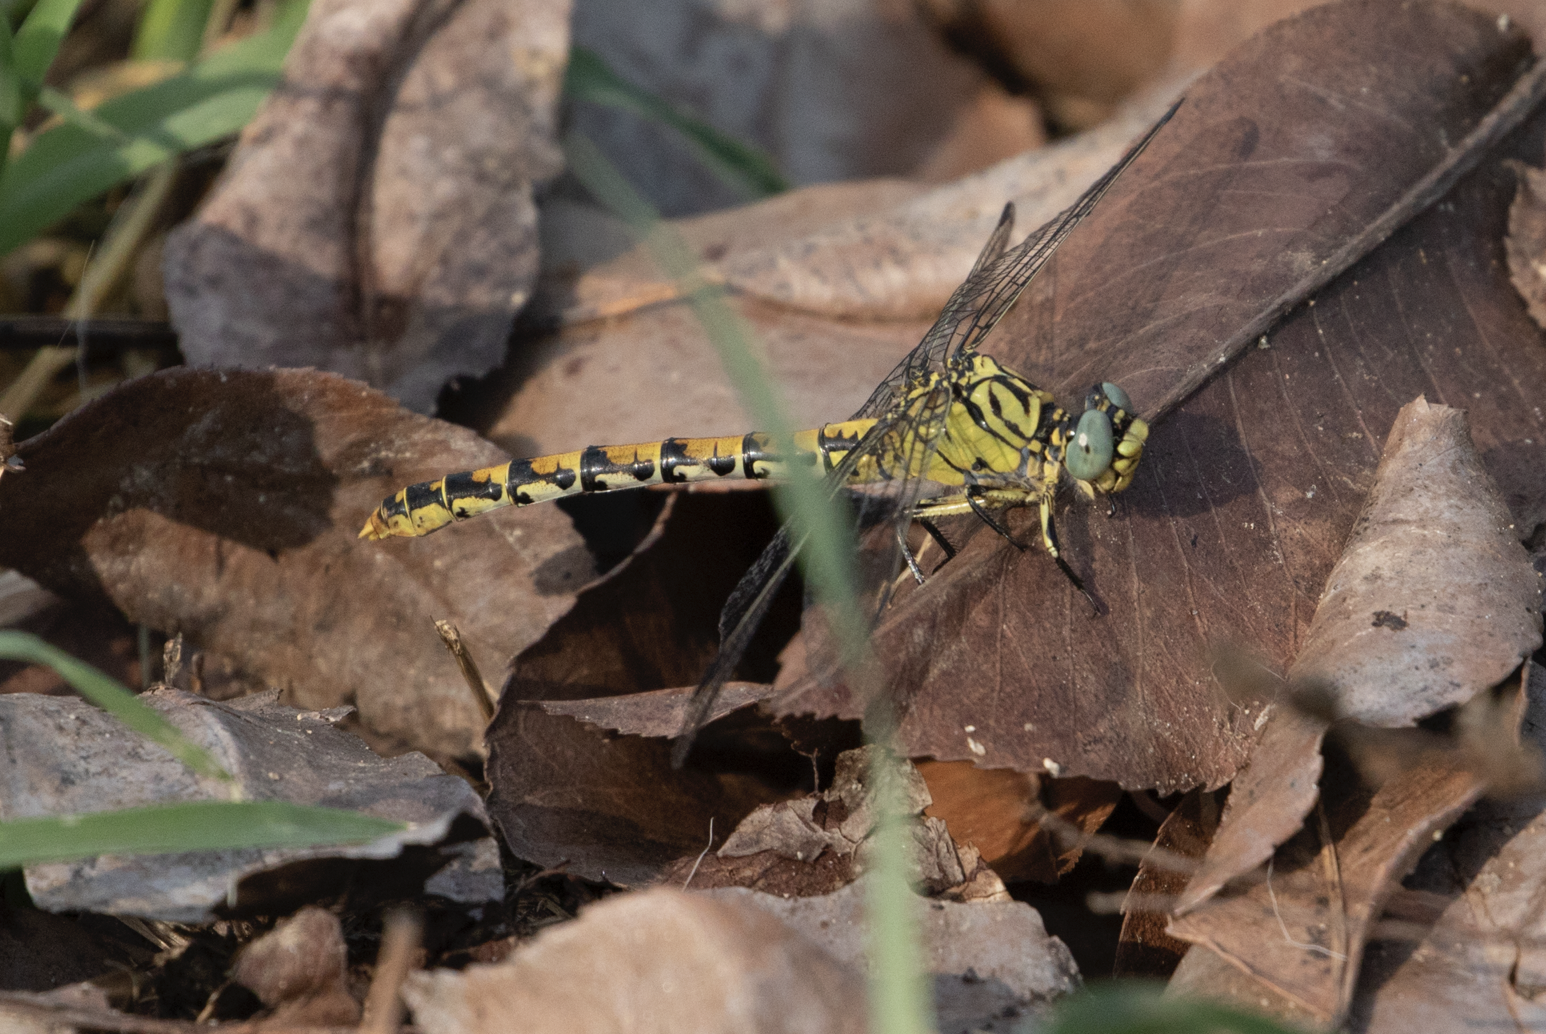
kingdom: Animalia
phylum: Arthropoda
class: Insecta
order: Odonata
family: Gomphidae
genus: Onychogomphus
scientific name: Onychogomphus forcipatus
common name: Small pincertail
